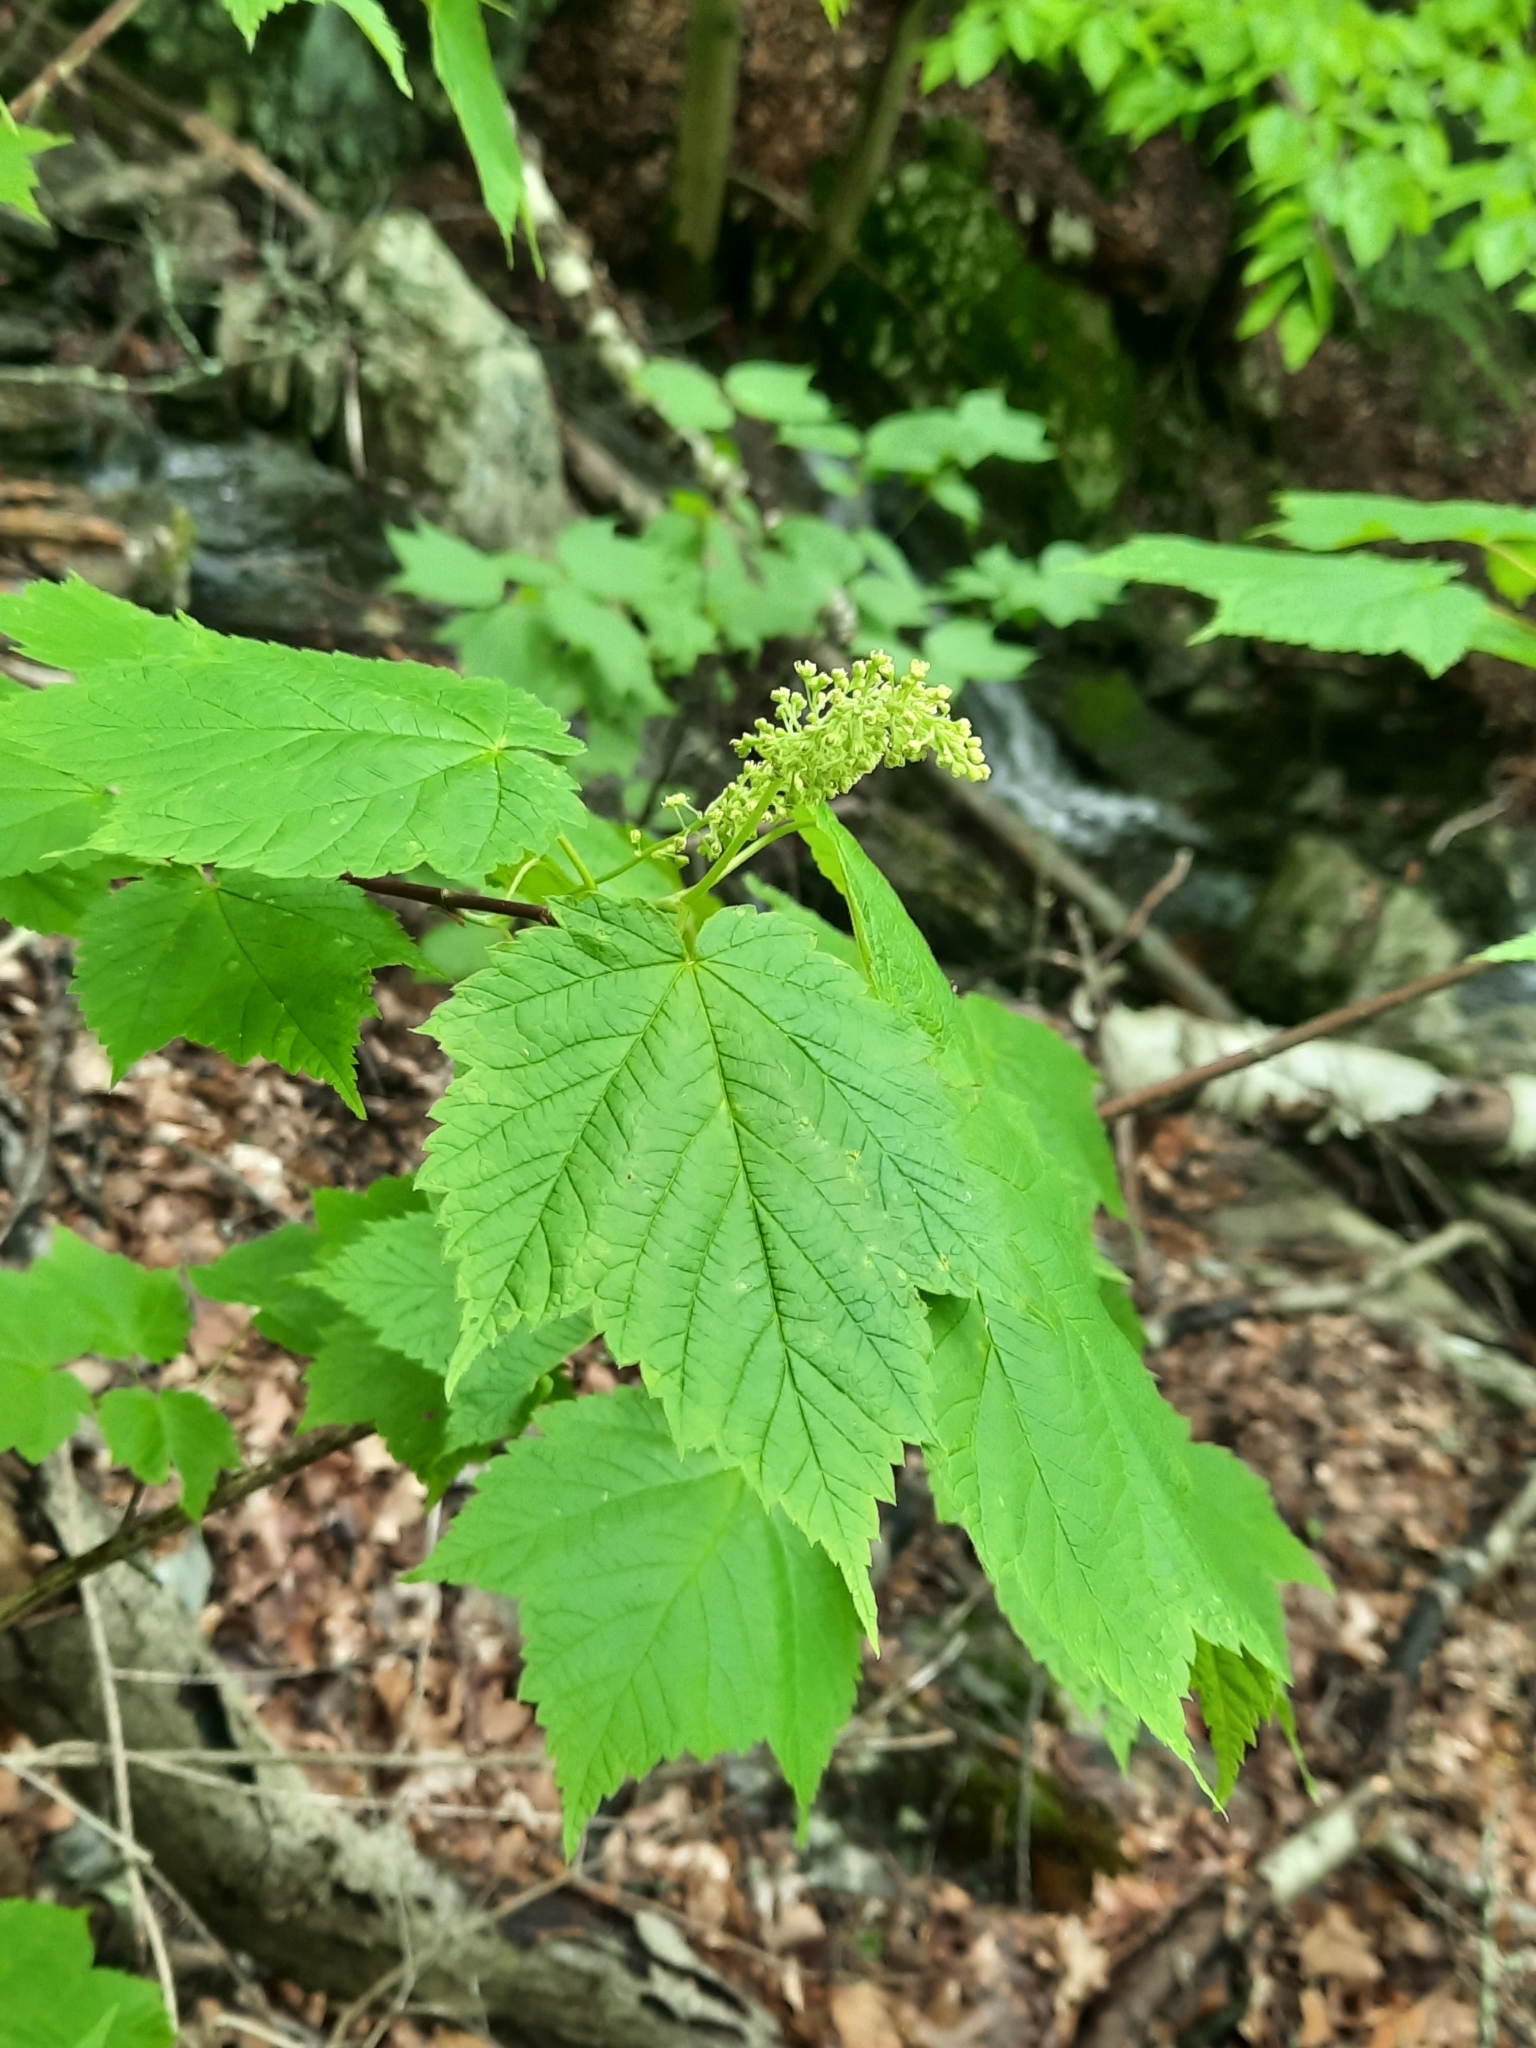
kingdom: Plantae
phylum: Tracheophyta
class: Magnoliopsida
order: Sapindales
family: Sapindaceae
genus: Acer
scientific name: Acer spicatum
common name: Mountain maple
